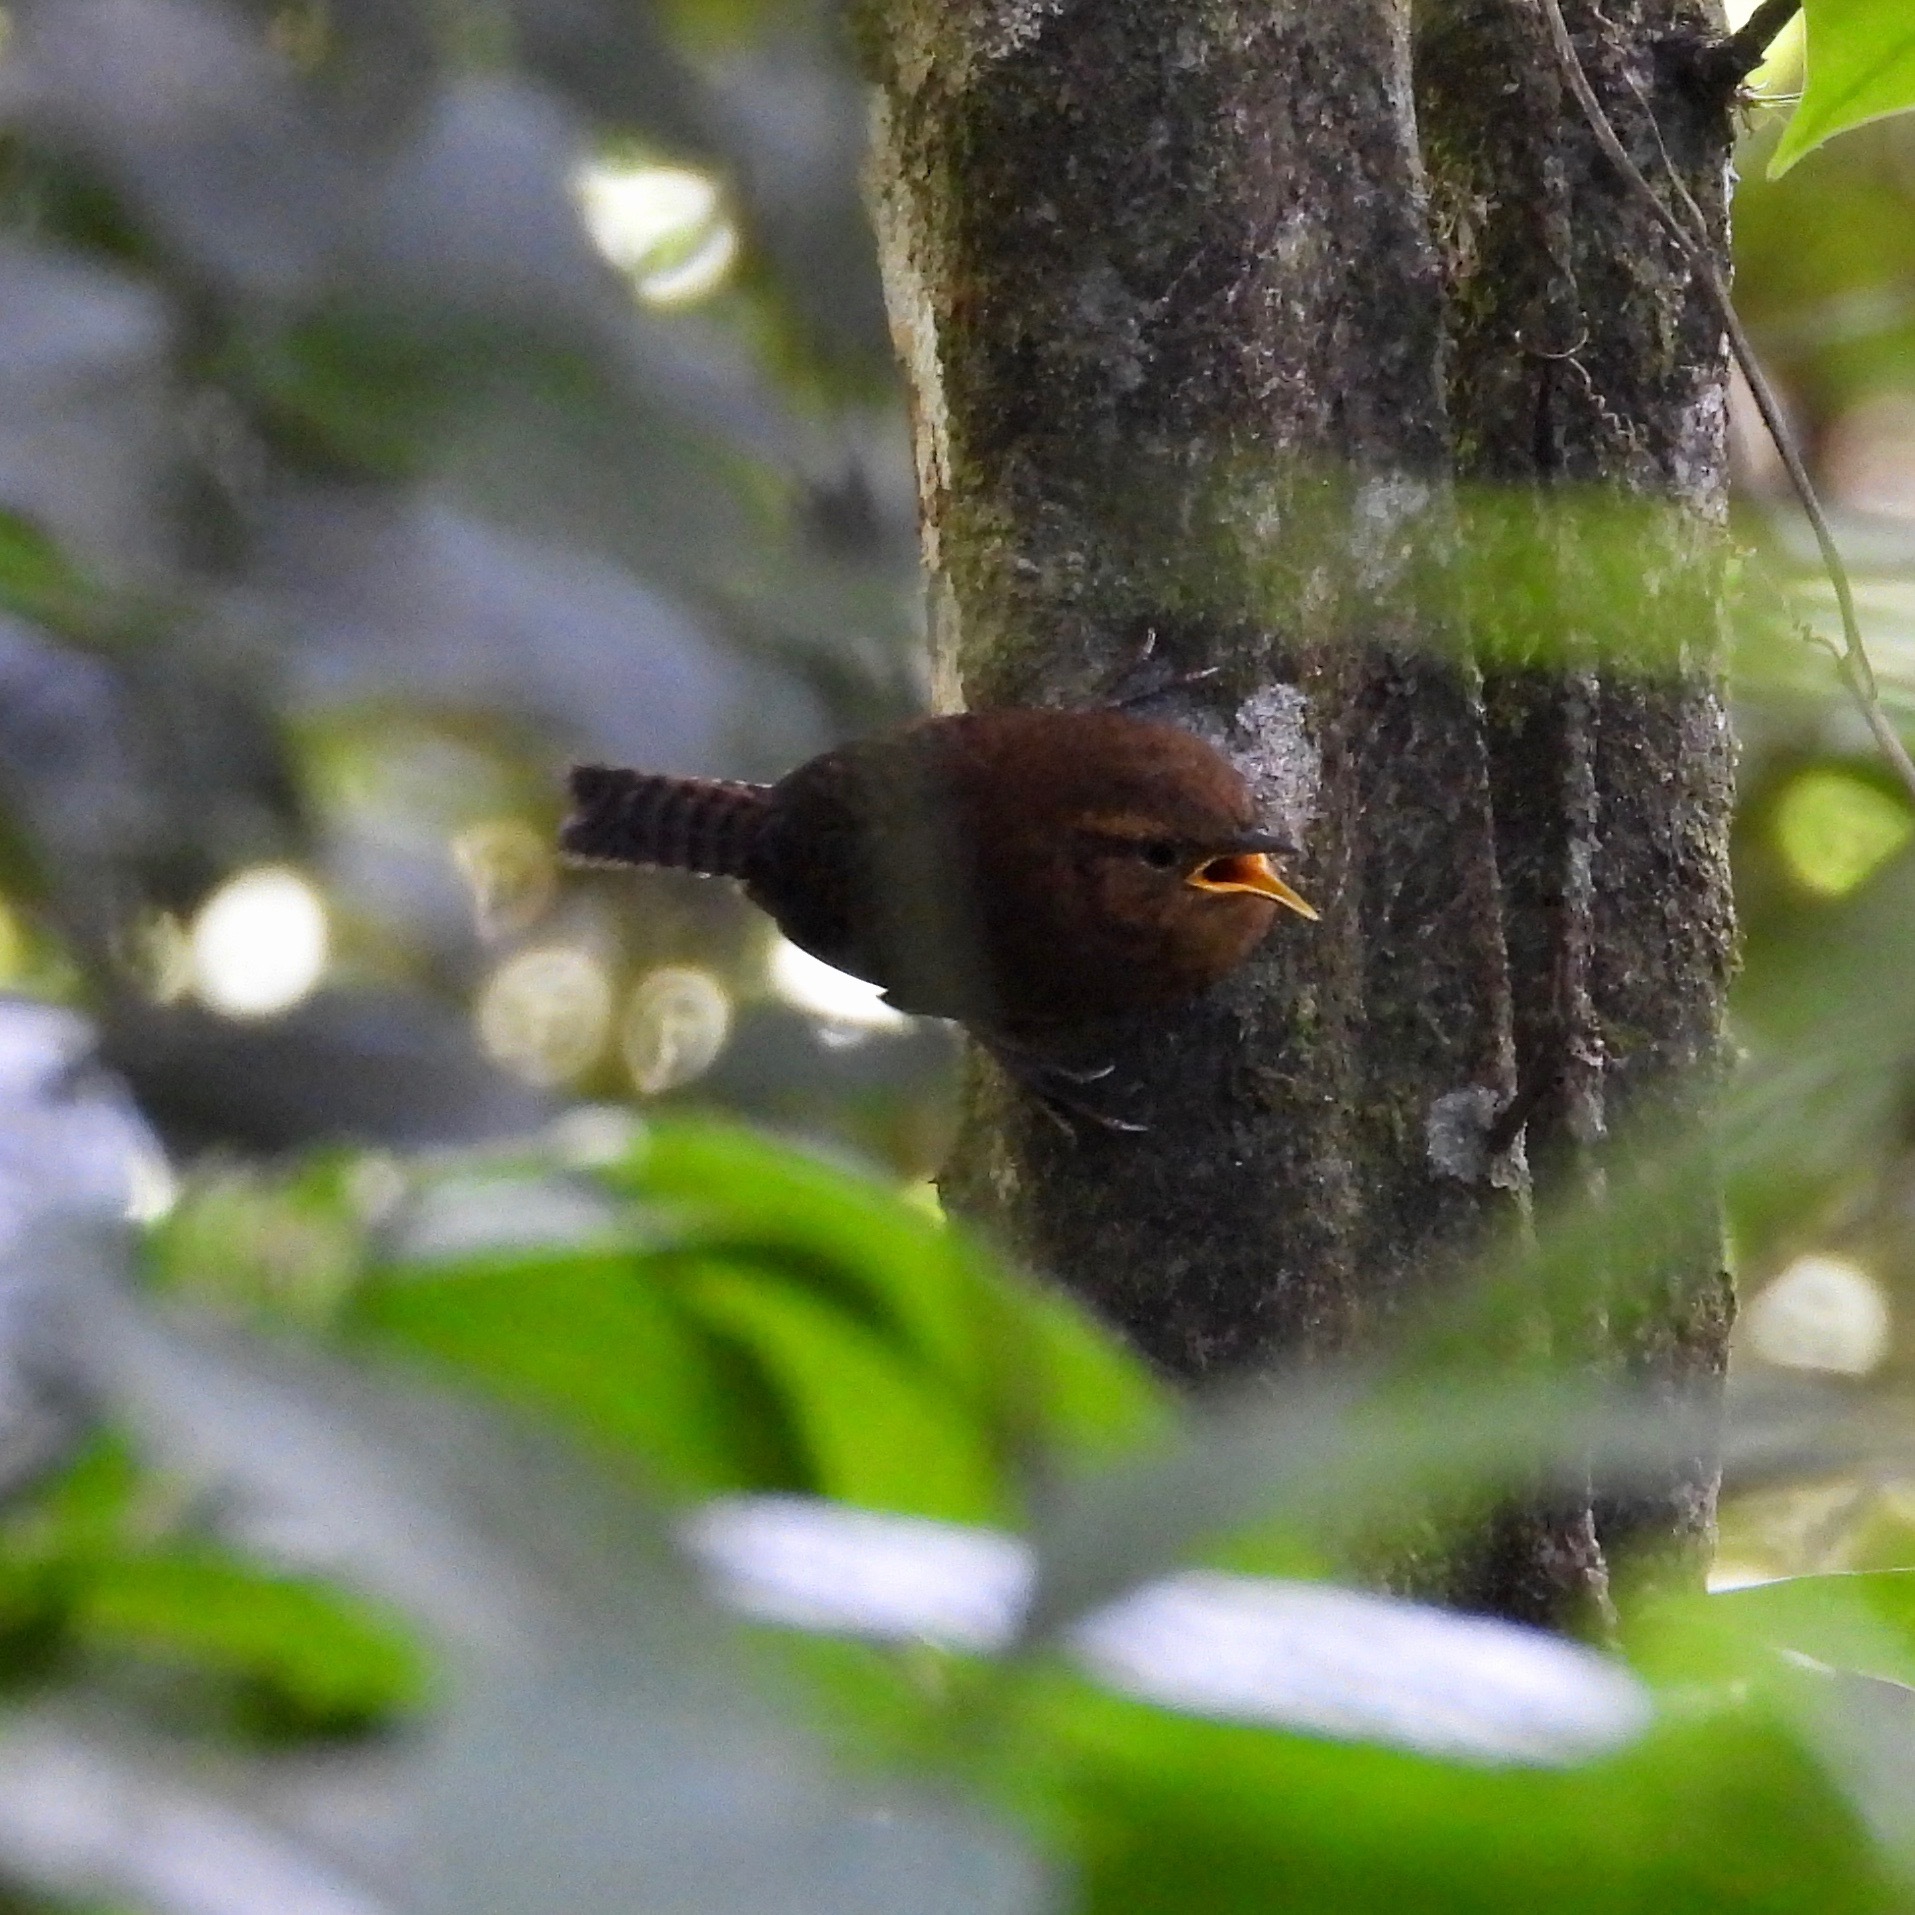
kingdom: Animalia
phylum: Chordata
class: Aves
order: Passeriformes
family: Troglodytidae
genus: Troglodytes
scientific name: Troglodytes rufociliatus
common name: Rufous-browed wren
